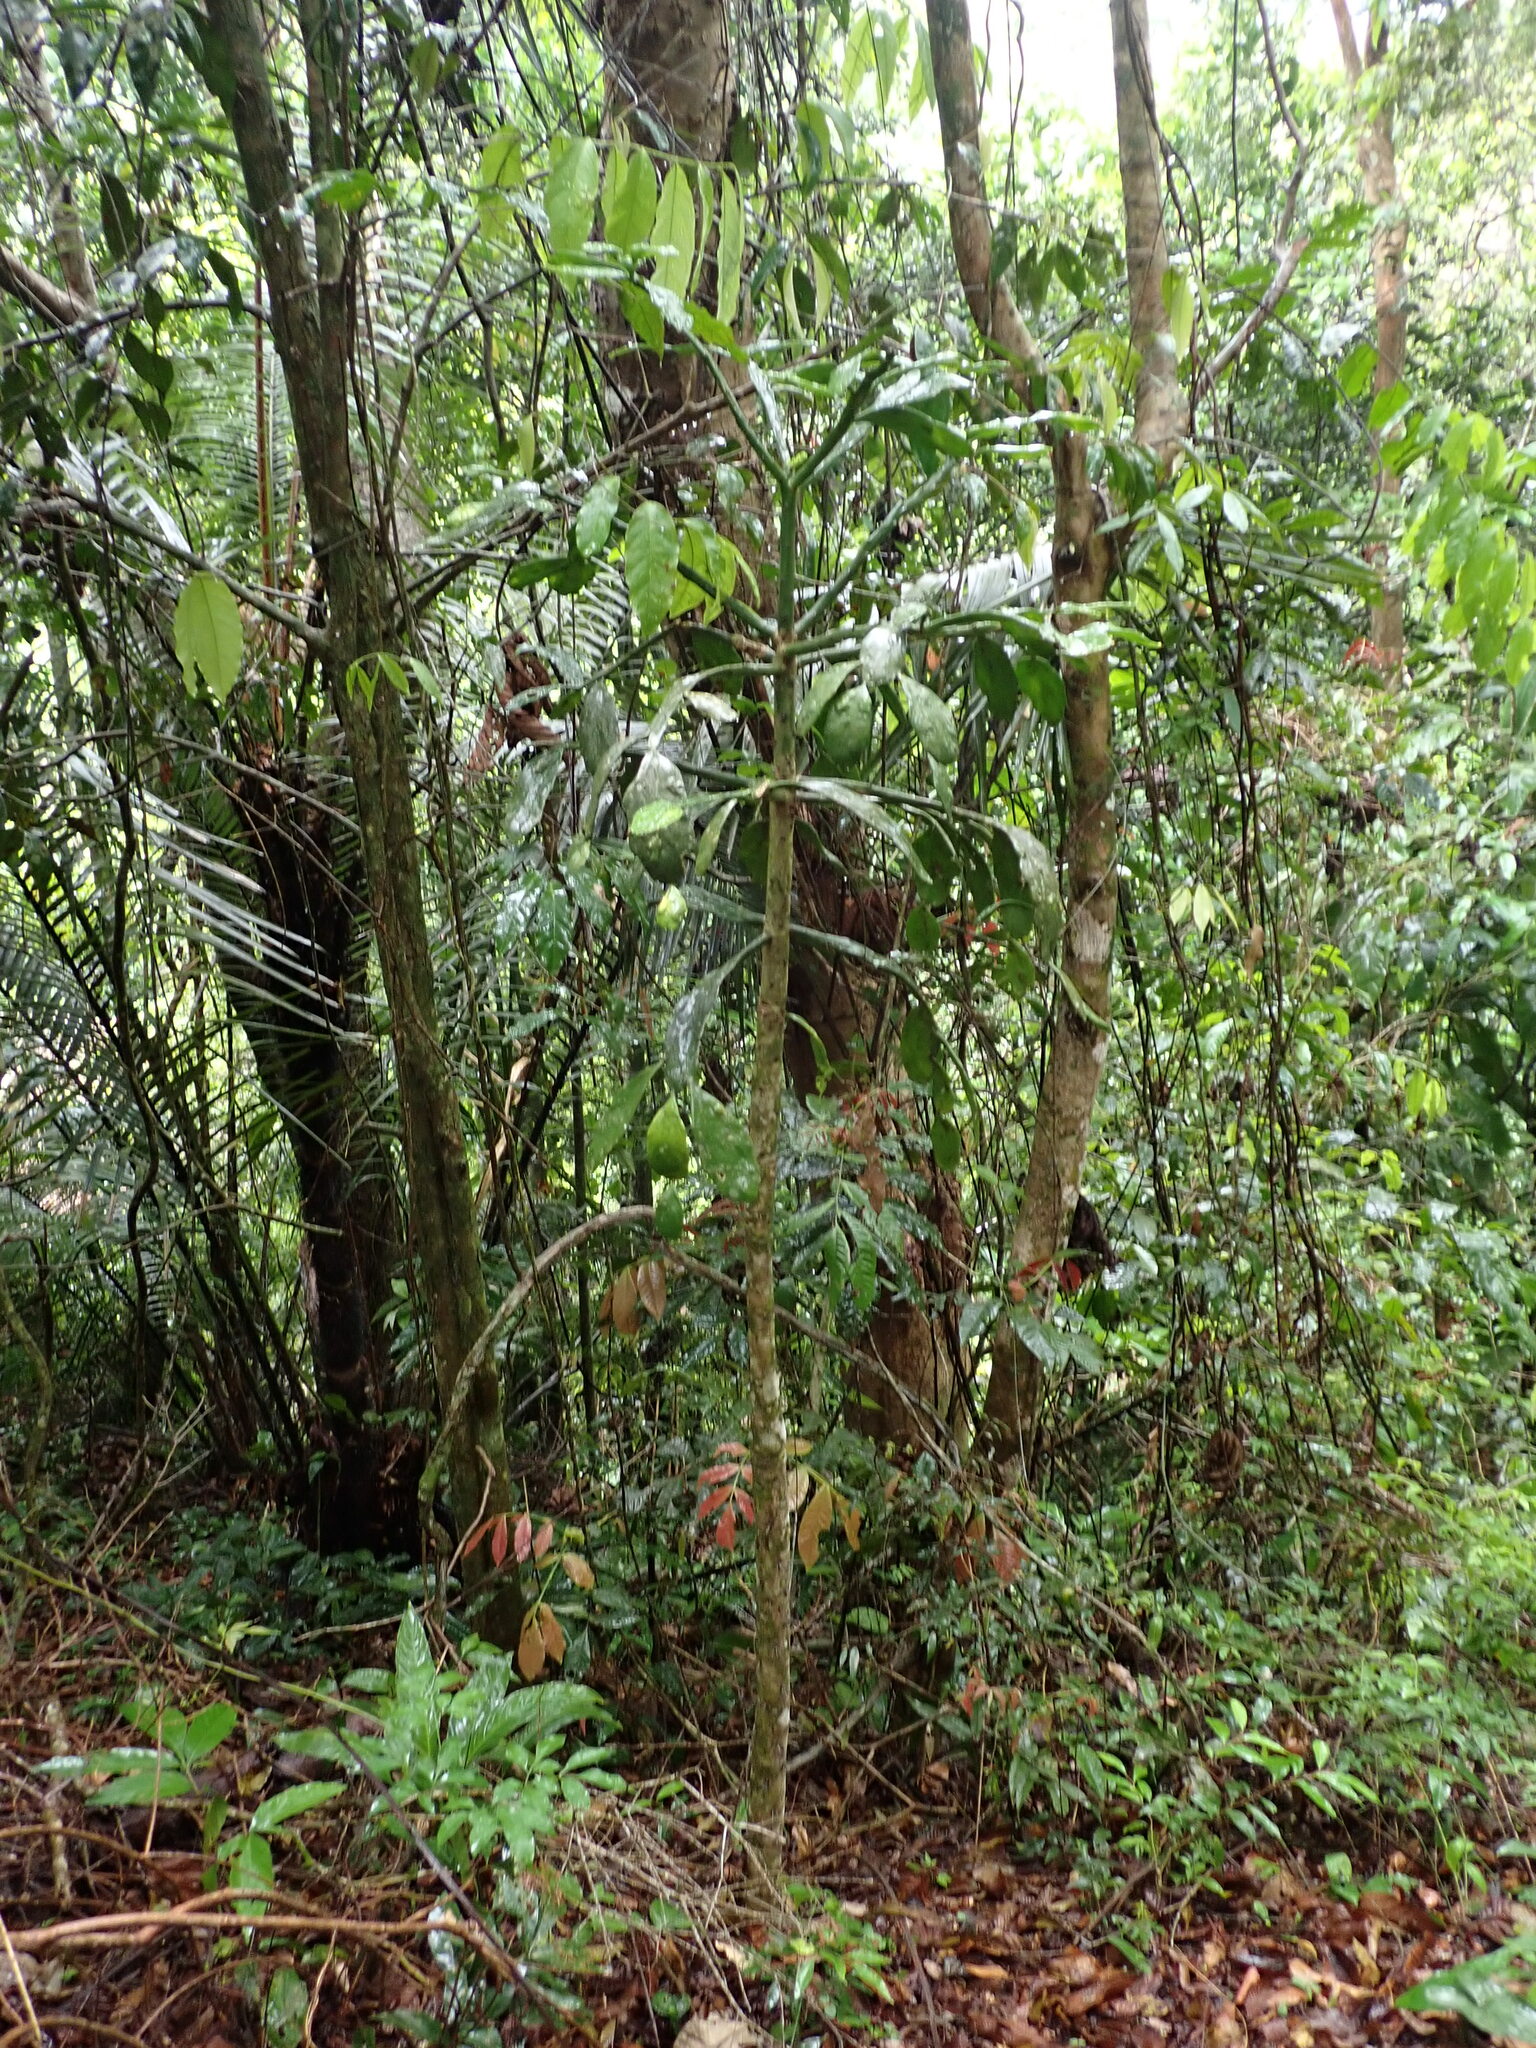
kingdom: Plantae
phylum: Tracheophyta
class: Magnoliopsida
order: Caryophyllales
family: Cactaceae
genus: Brasiliopuntia
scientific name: Brasiliopuntia brasiliensis
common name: Brazilian pricklypear
